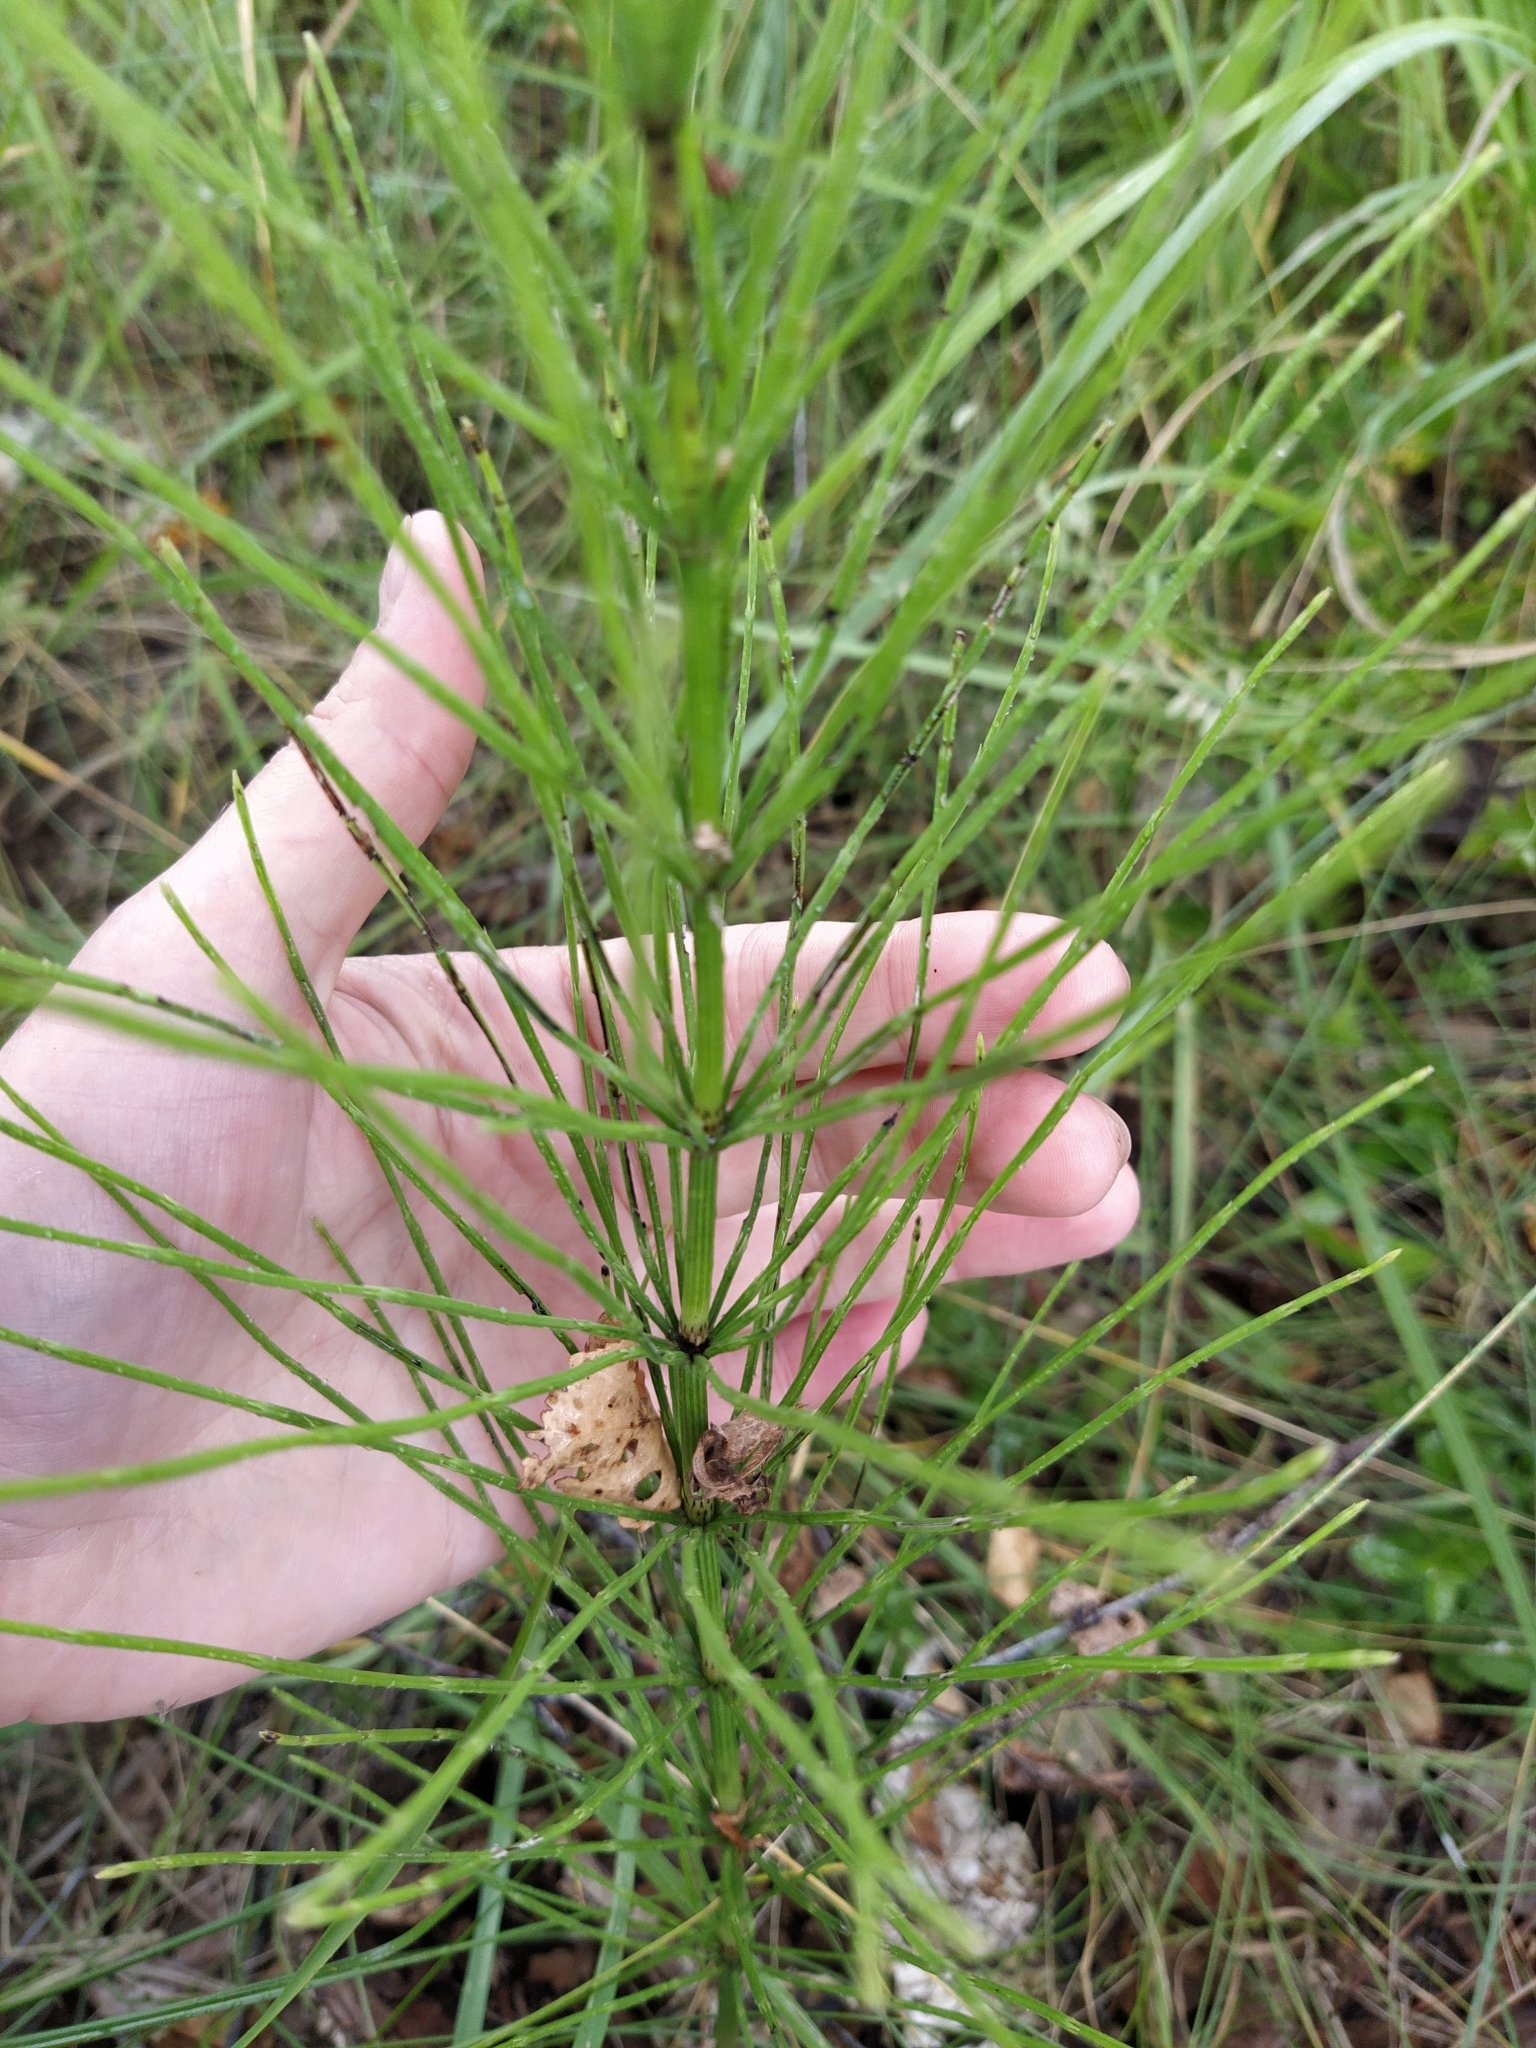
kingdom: Plantae
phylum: Tracheophyta
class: Polypodiopsida
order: Equisetales
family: Equisetaceae
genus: Equisetum
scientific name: Equisetum arvense
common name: Field horsetail
